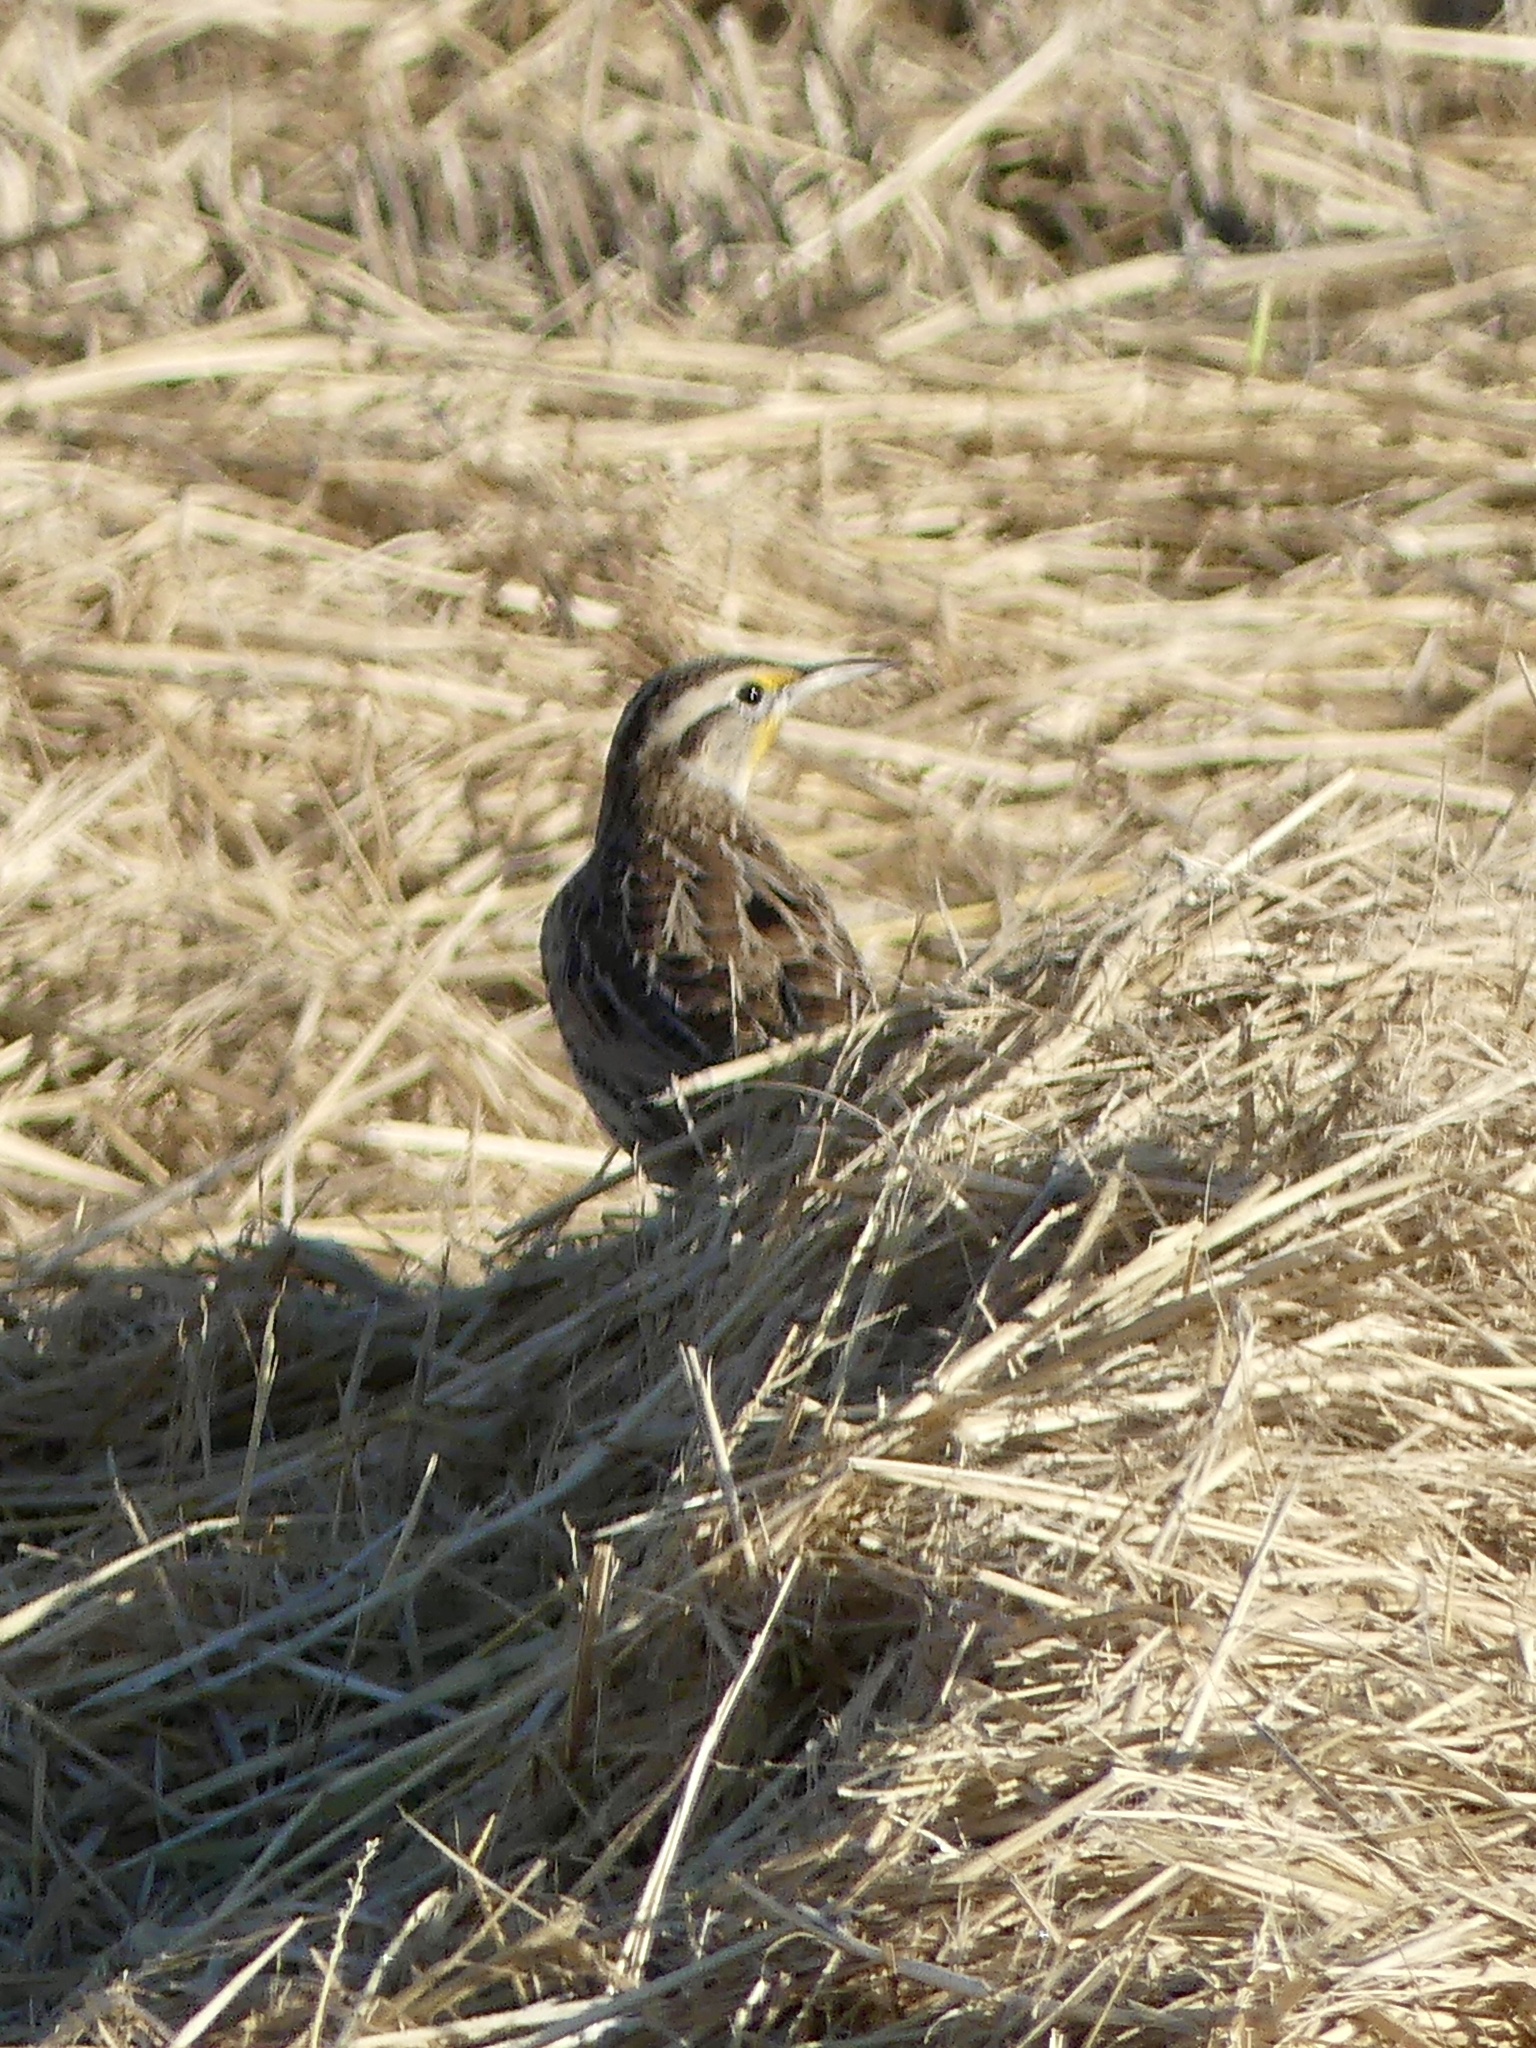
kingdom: Animalia
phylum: Chordata
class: Aves
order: Passeriformes
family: Icteridae
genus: Sturnella
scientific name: Sturnella neglecta
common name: Western meadowlark
